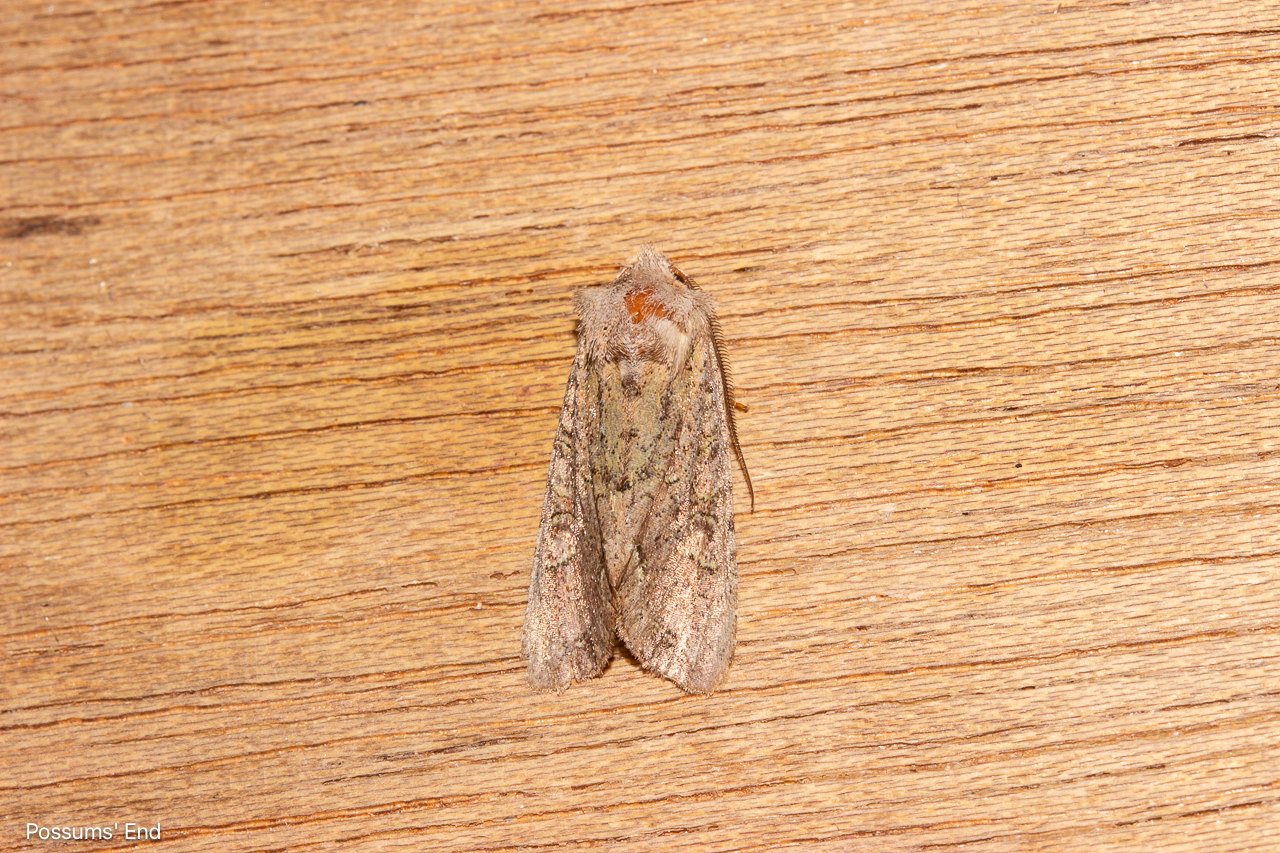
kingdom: Animalia
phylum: Arthropoda
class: Insecta
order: Lepidoptera
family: Noctuidae
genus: Ichneutica
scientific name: Ichneutica skelloni
